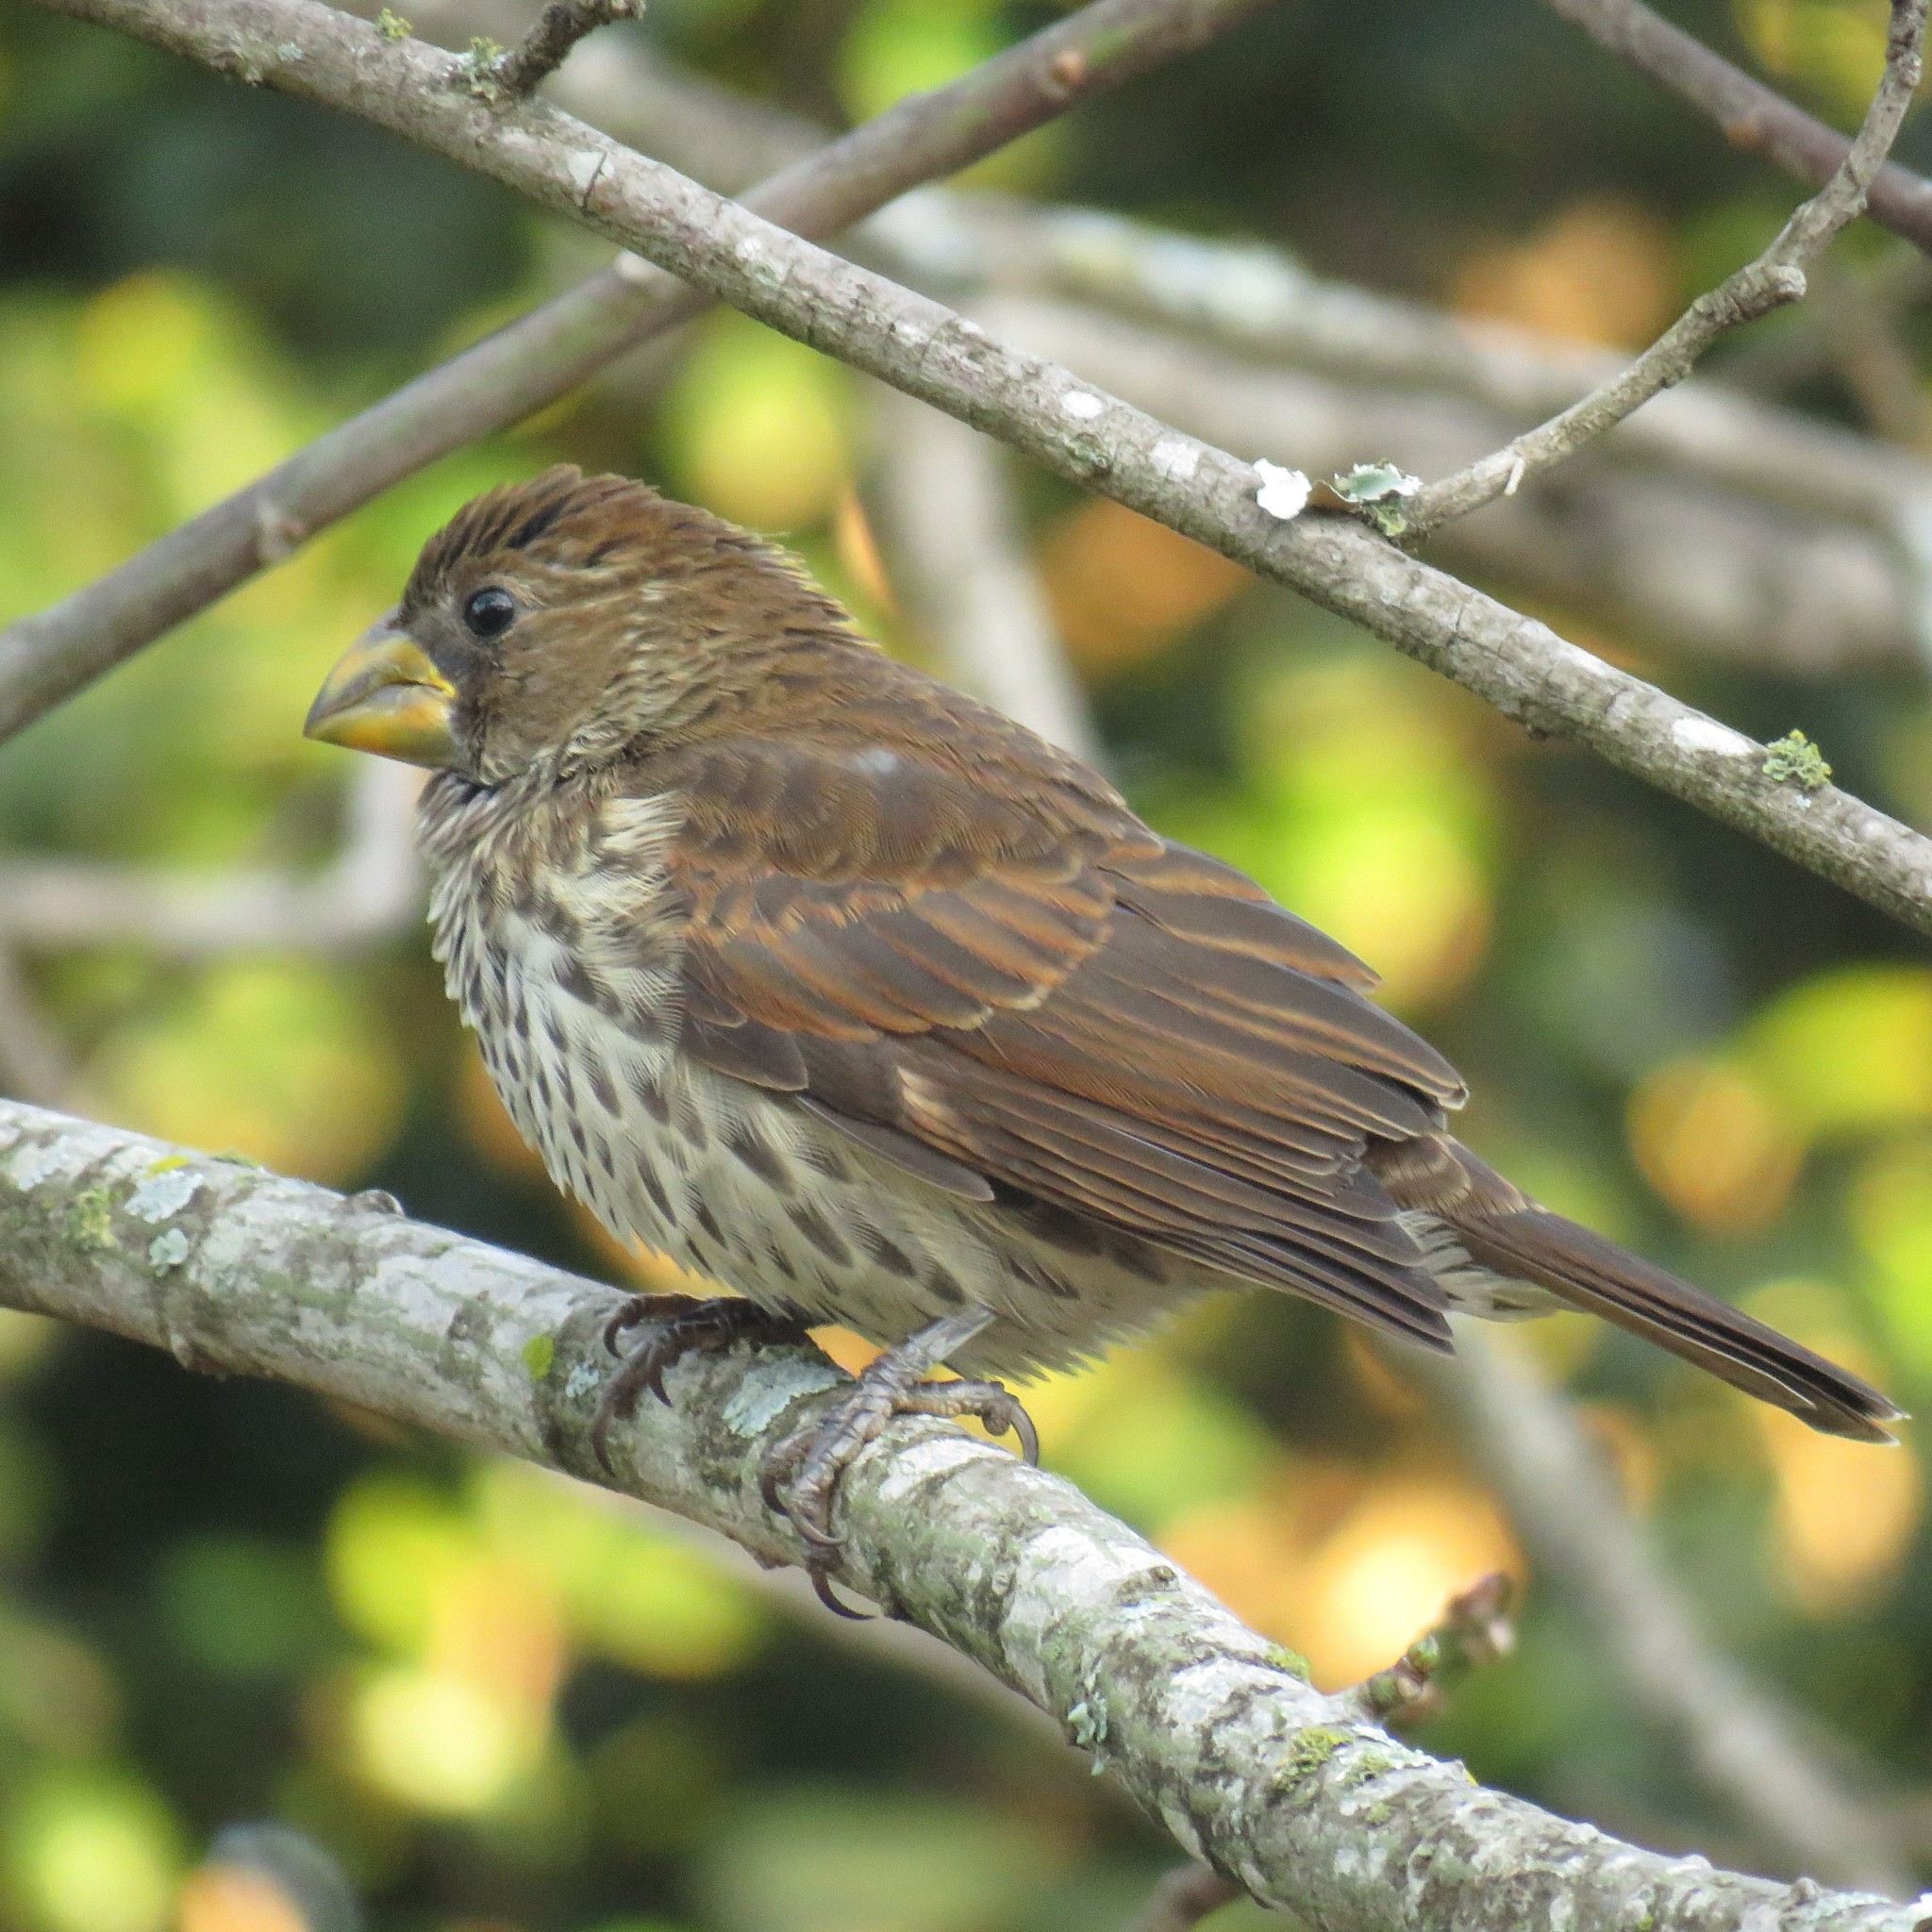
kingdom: Animalia
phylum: Chordata
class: Aves
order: Passeriformes
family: Ploceidae
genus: Amblyospiza
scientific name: Amblyospiza albifrons
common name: Thick-billed weaver
